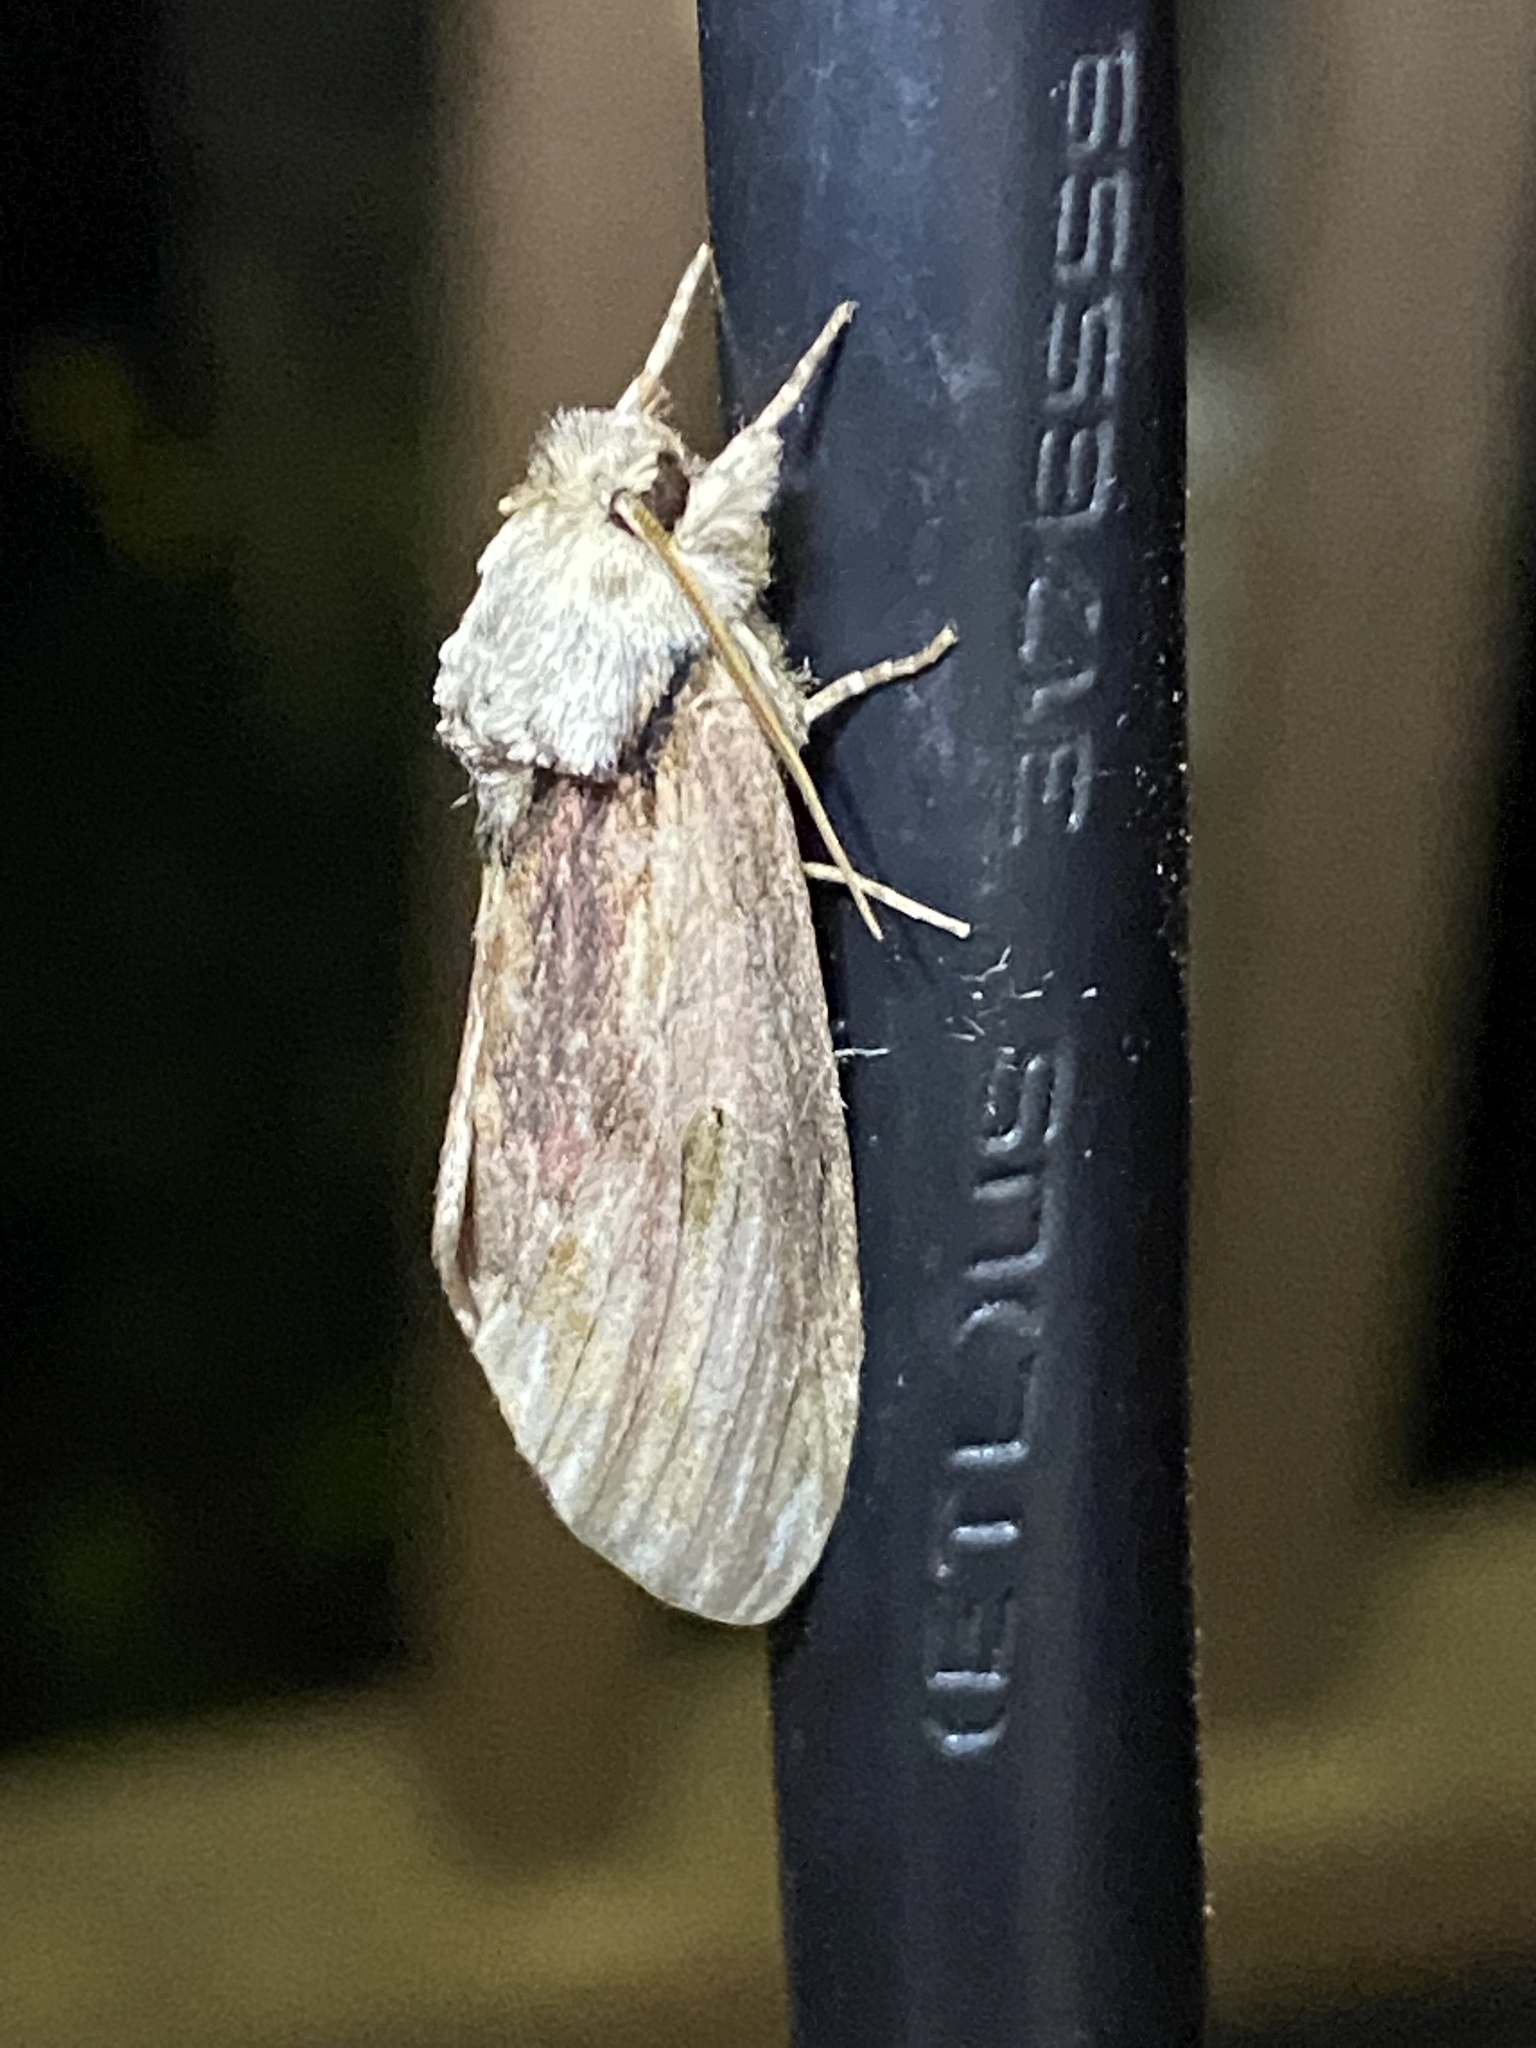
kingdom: Animalia
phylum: Arthropoda
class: Insecta
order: Lepidoptera
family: Notodontidae
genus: Schizura
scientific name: Schizura
